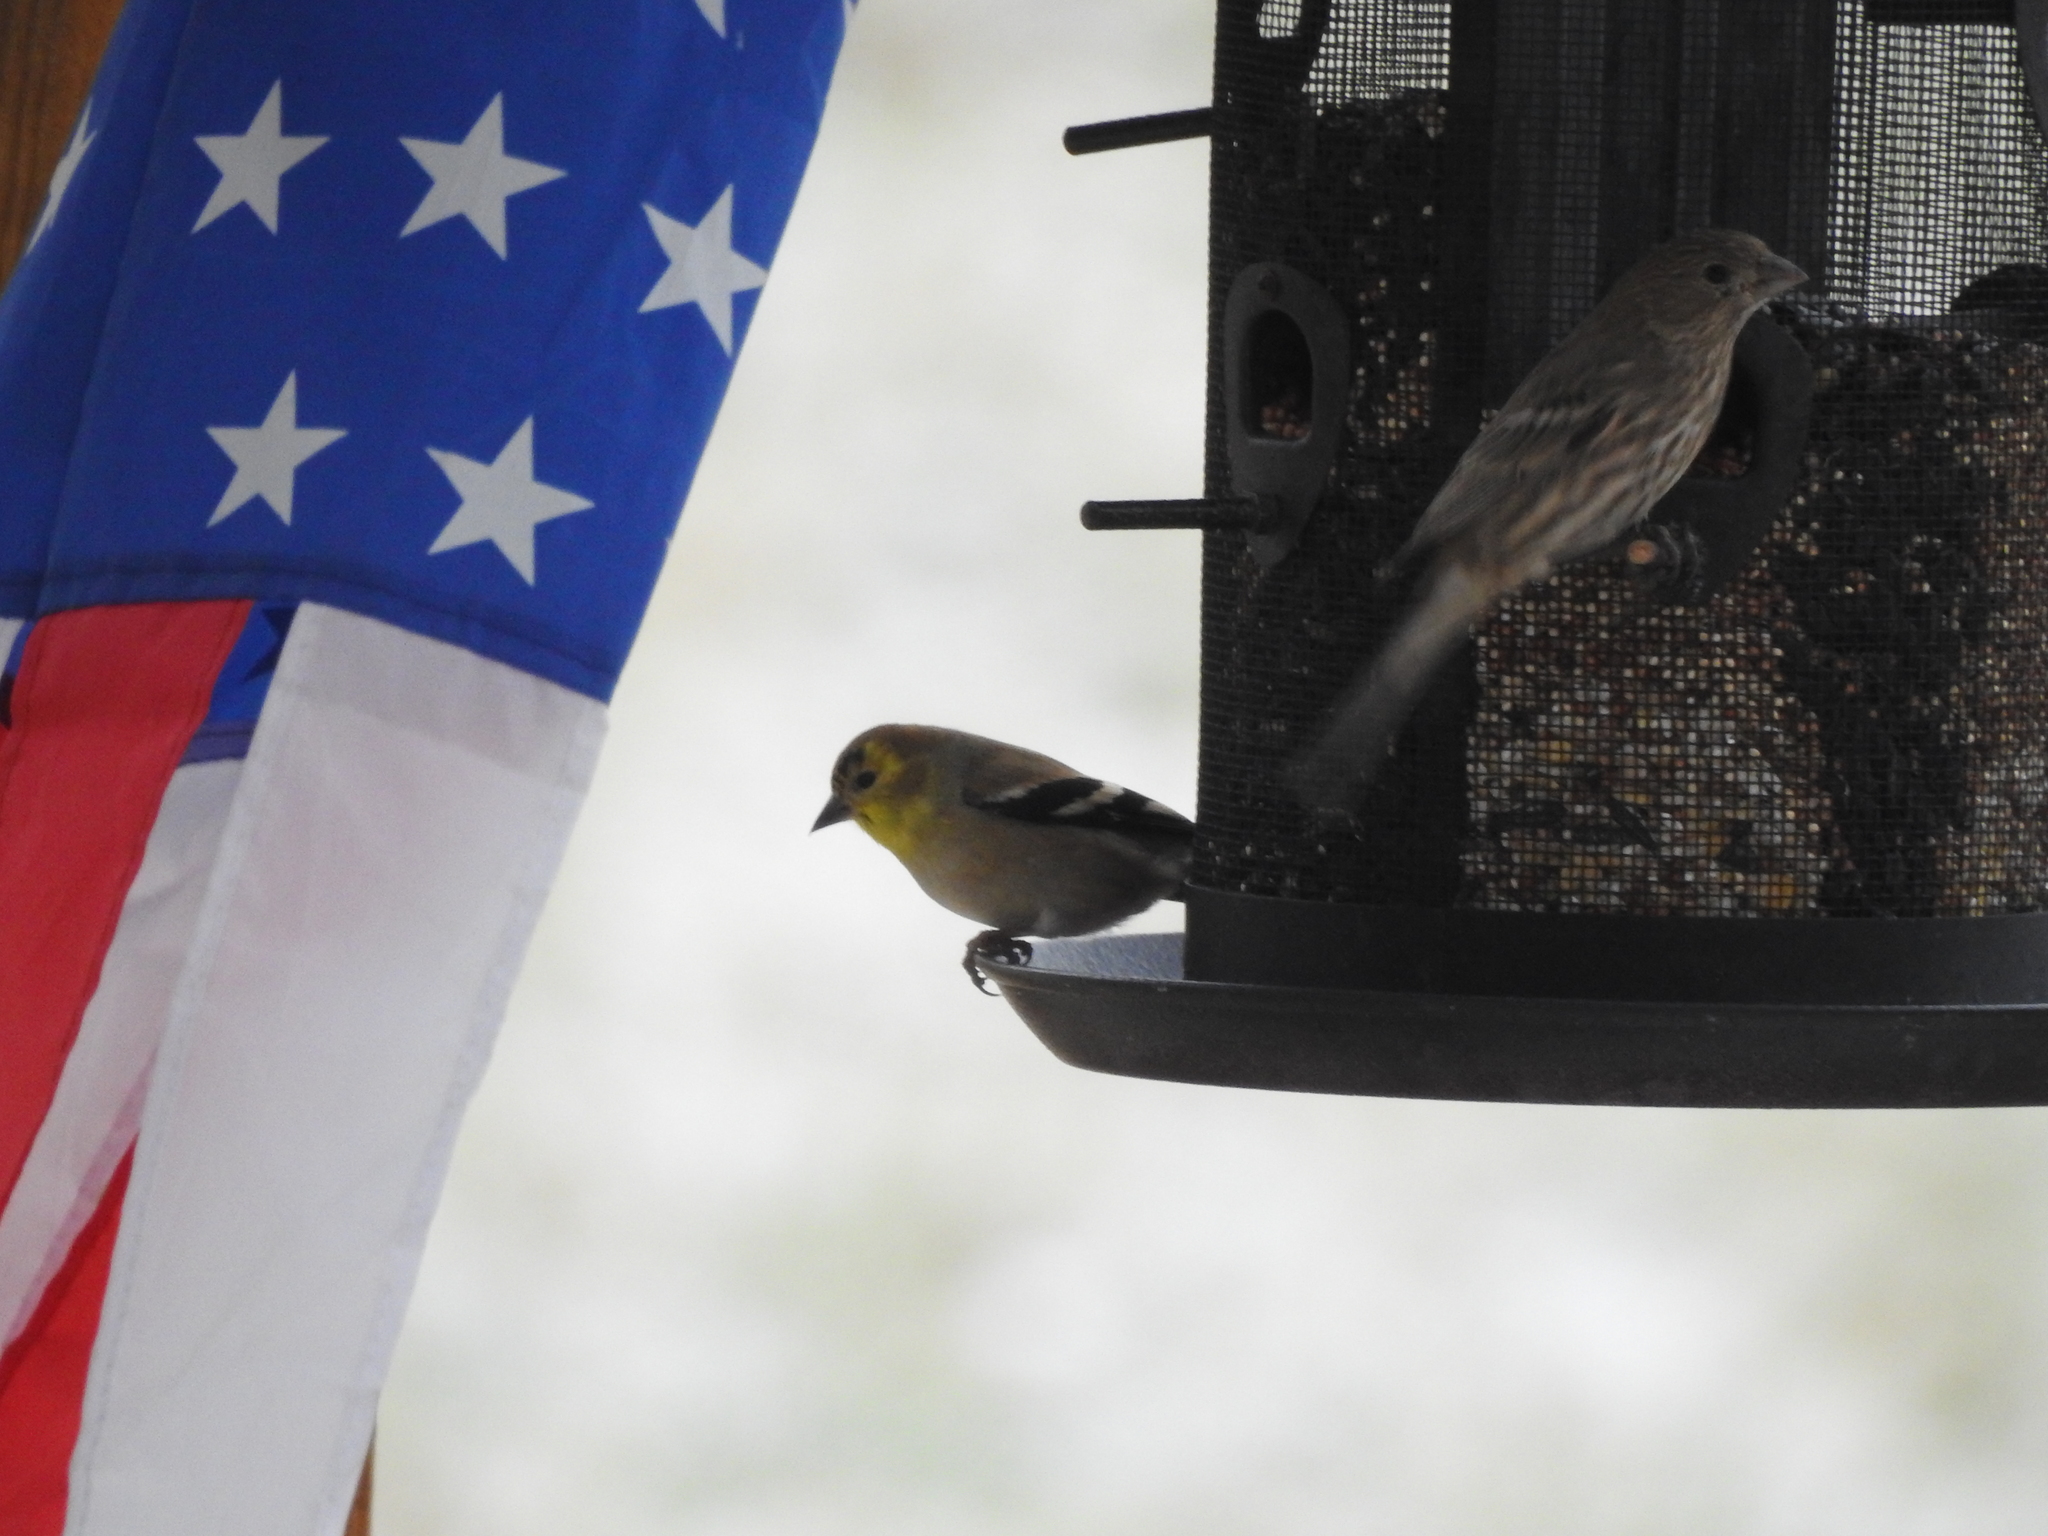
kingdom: Animalia
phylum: Chordata
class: Aves
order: Passeriformes
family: Fringillidae
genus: Spinus
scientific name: Spinus tristis
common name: American goldfinch
